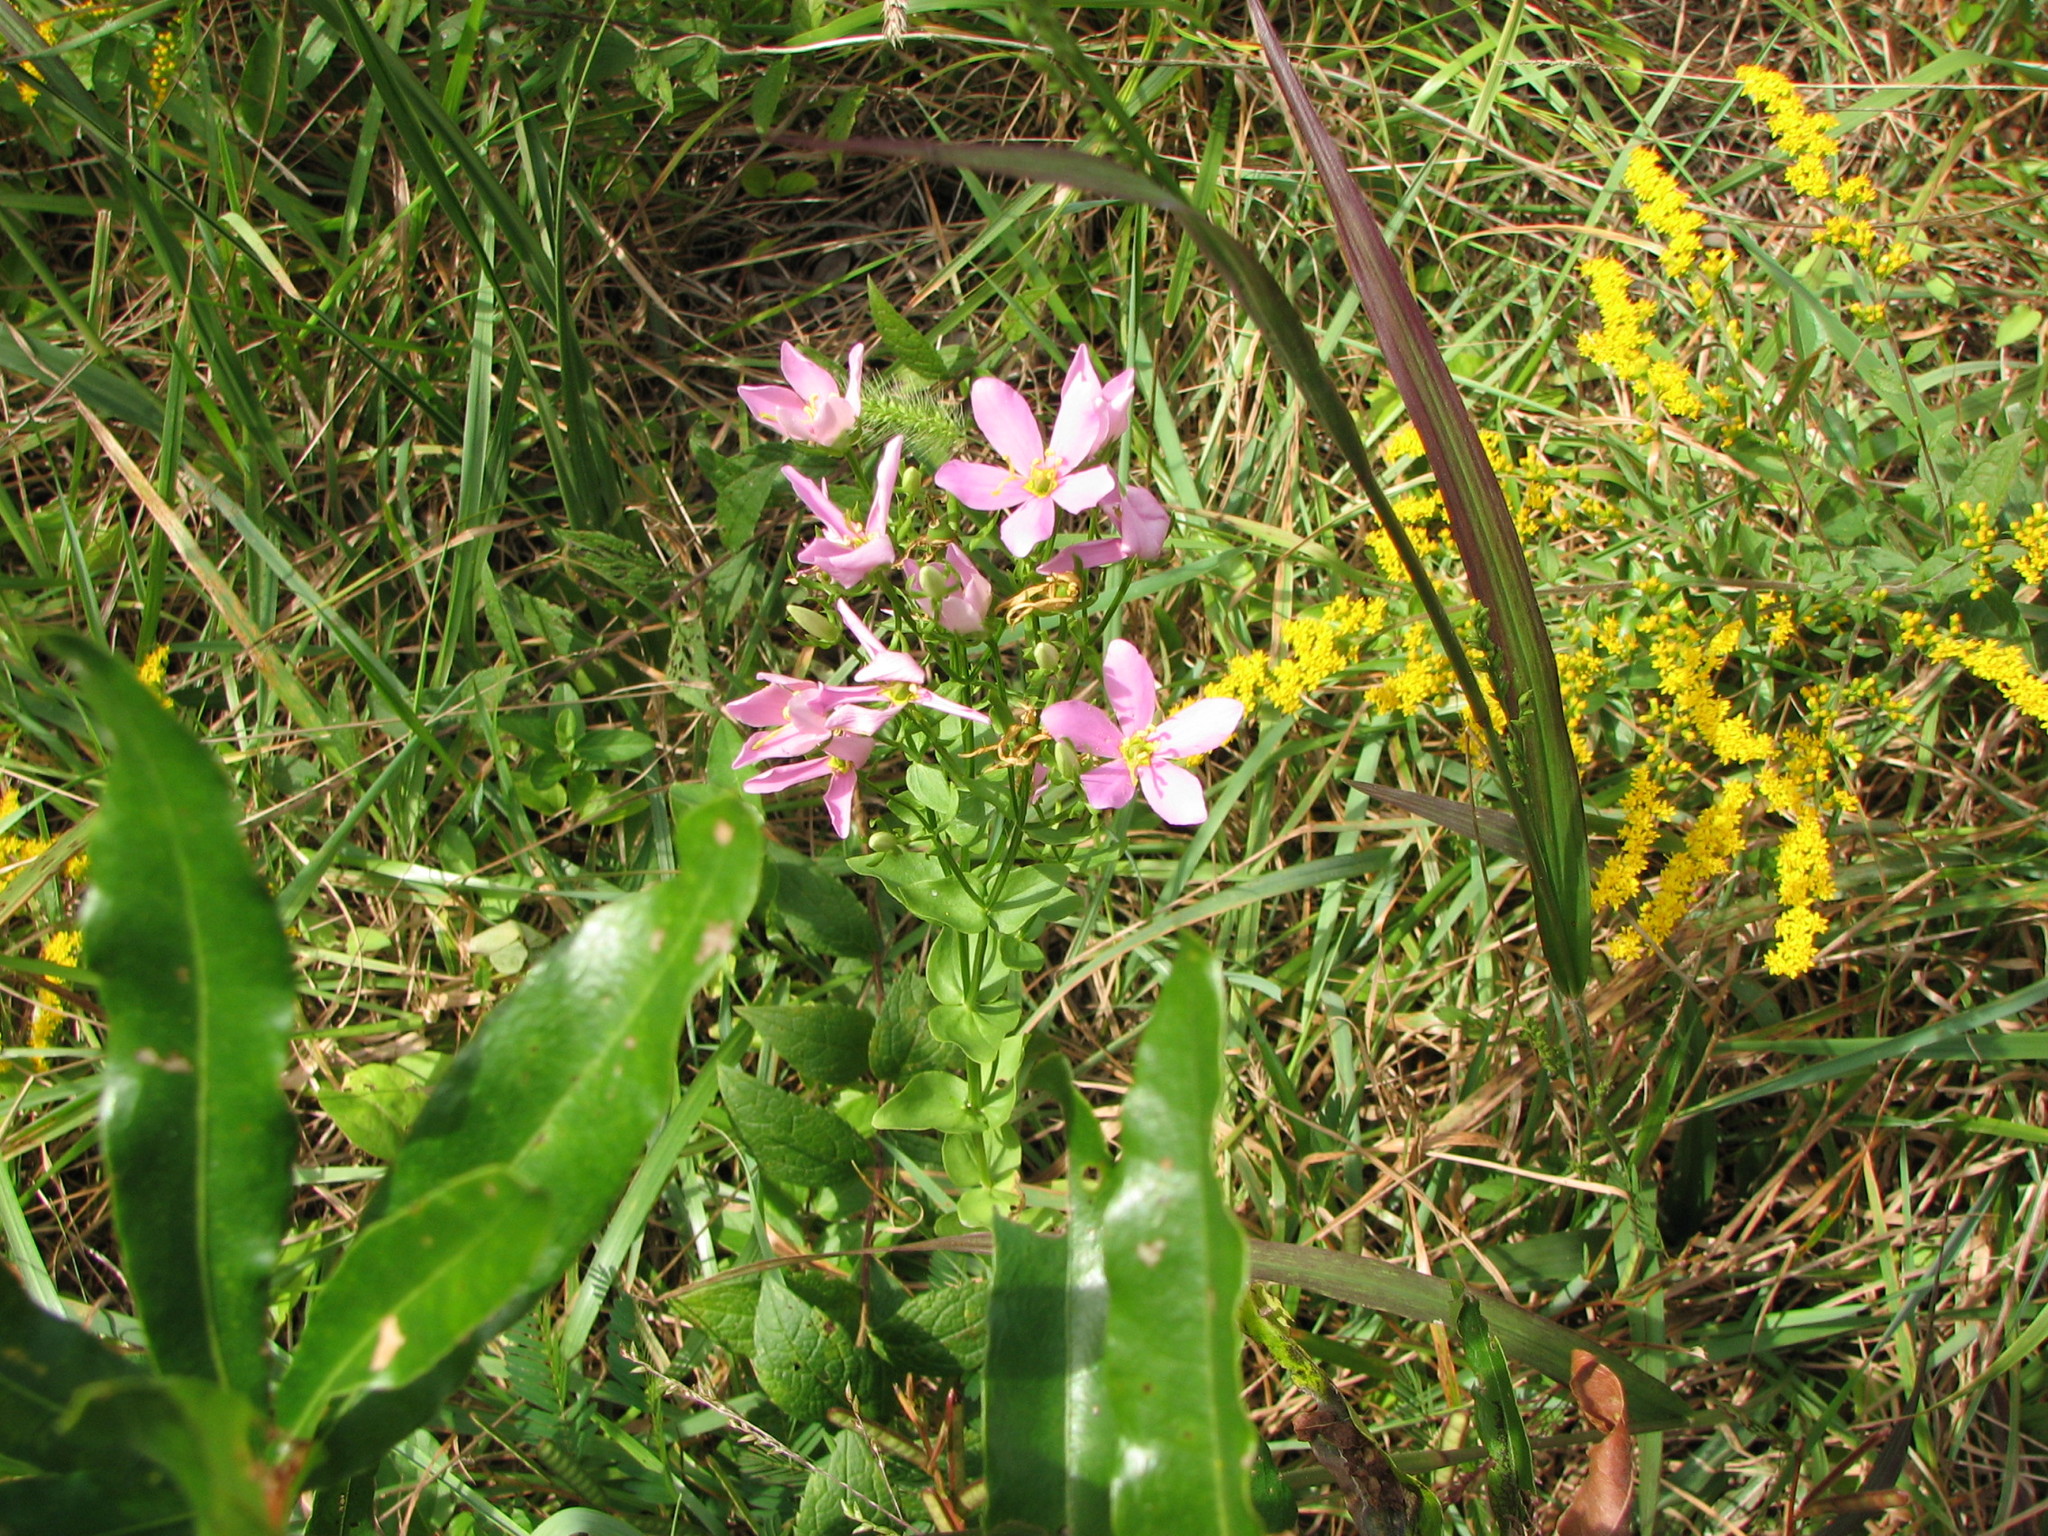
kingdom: Plantae
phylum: Tracheophyta
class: Magnoliopsida
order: Gentianales
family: Gentianaceae
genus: Sabatia
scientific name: Sabatia angularis
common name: Rose-pink
